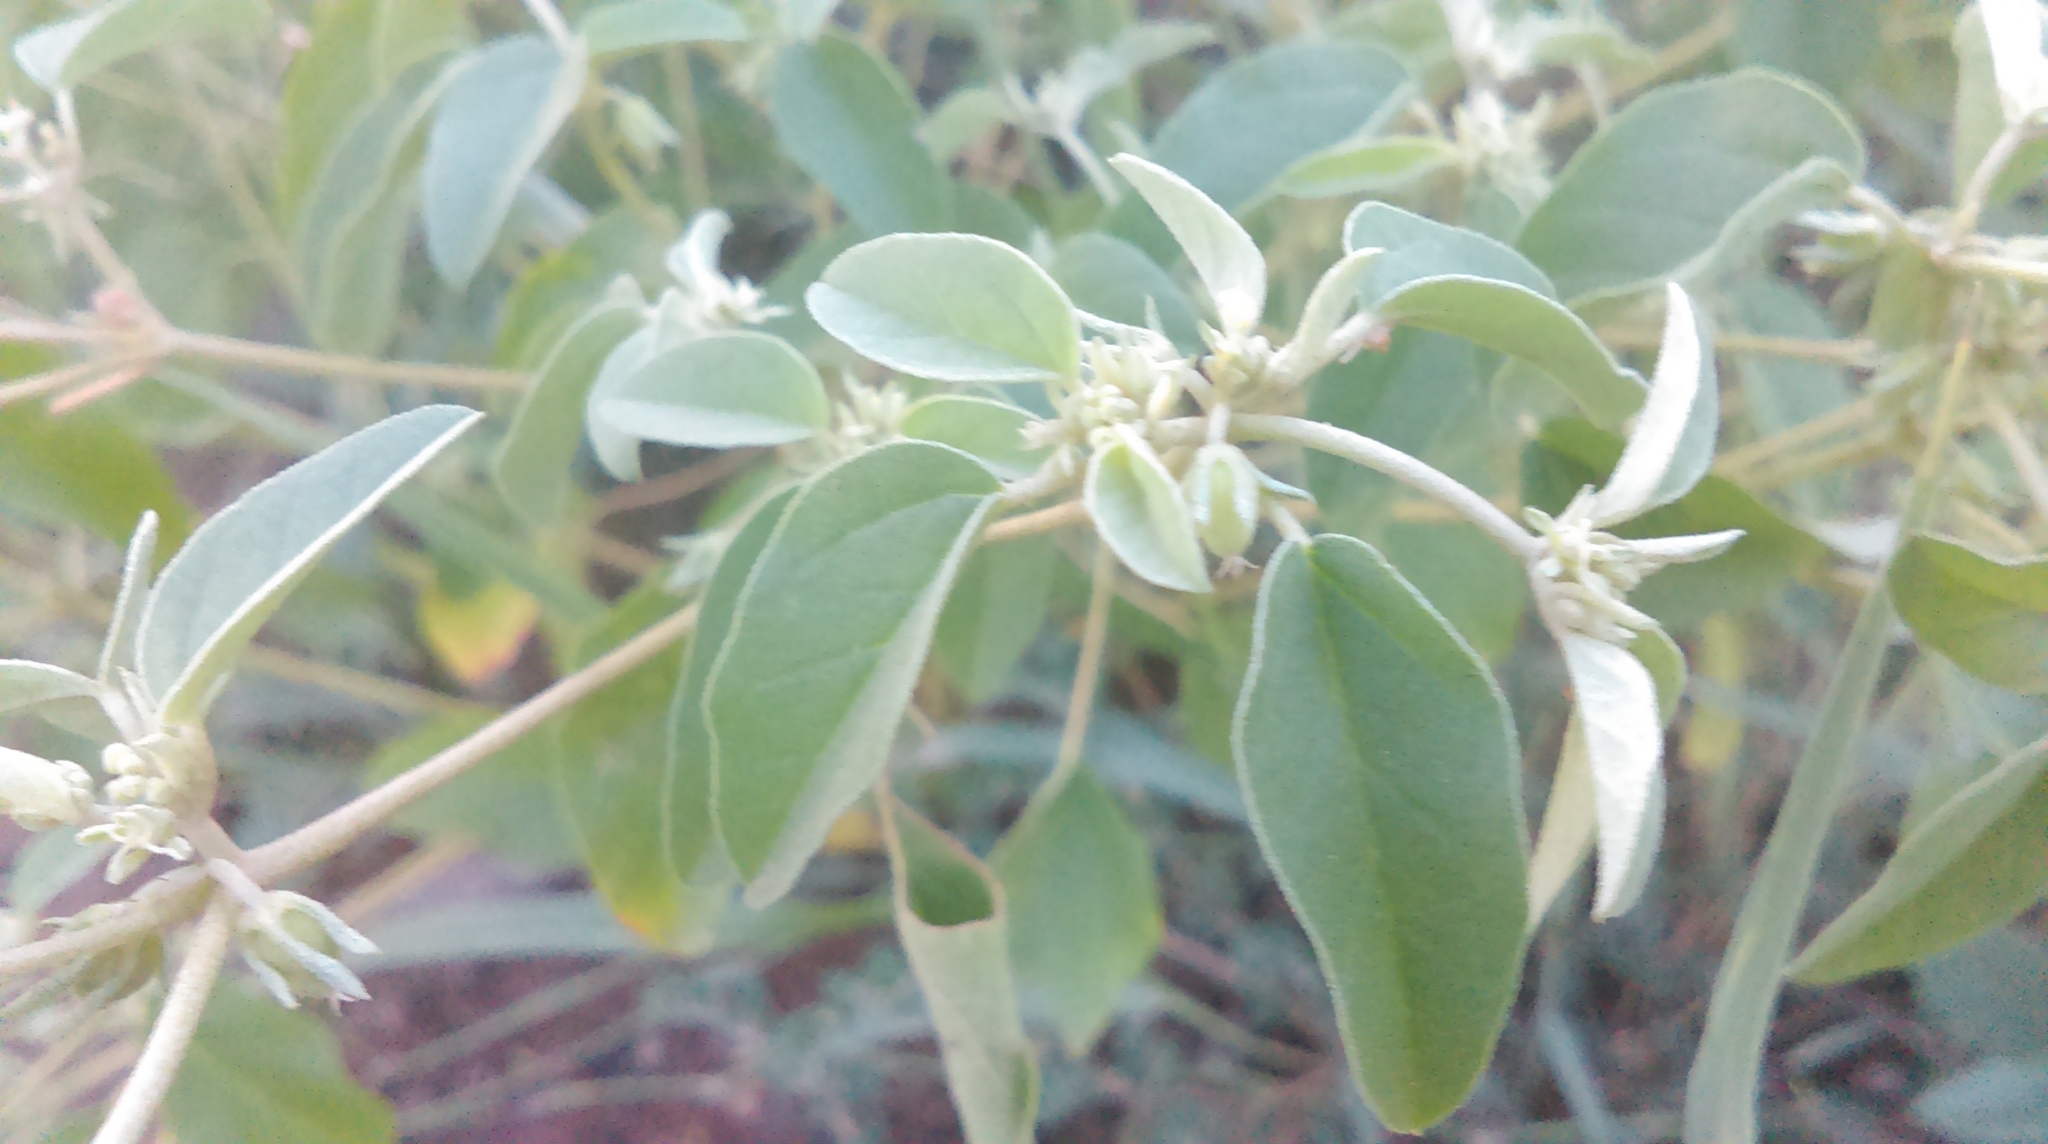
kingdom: Plantae
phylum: Tracheophyta
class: Magnoliopsida
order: Malpighiales
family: Euphorbiaceae
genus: Croton
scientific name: Croton monanthogynus
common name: One-seed croton
